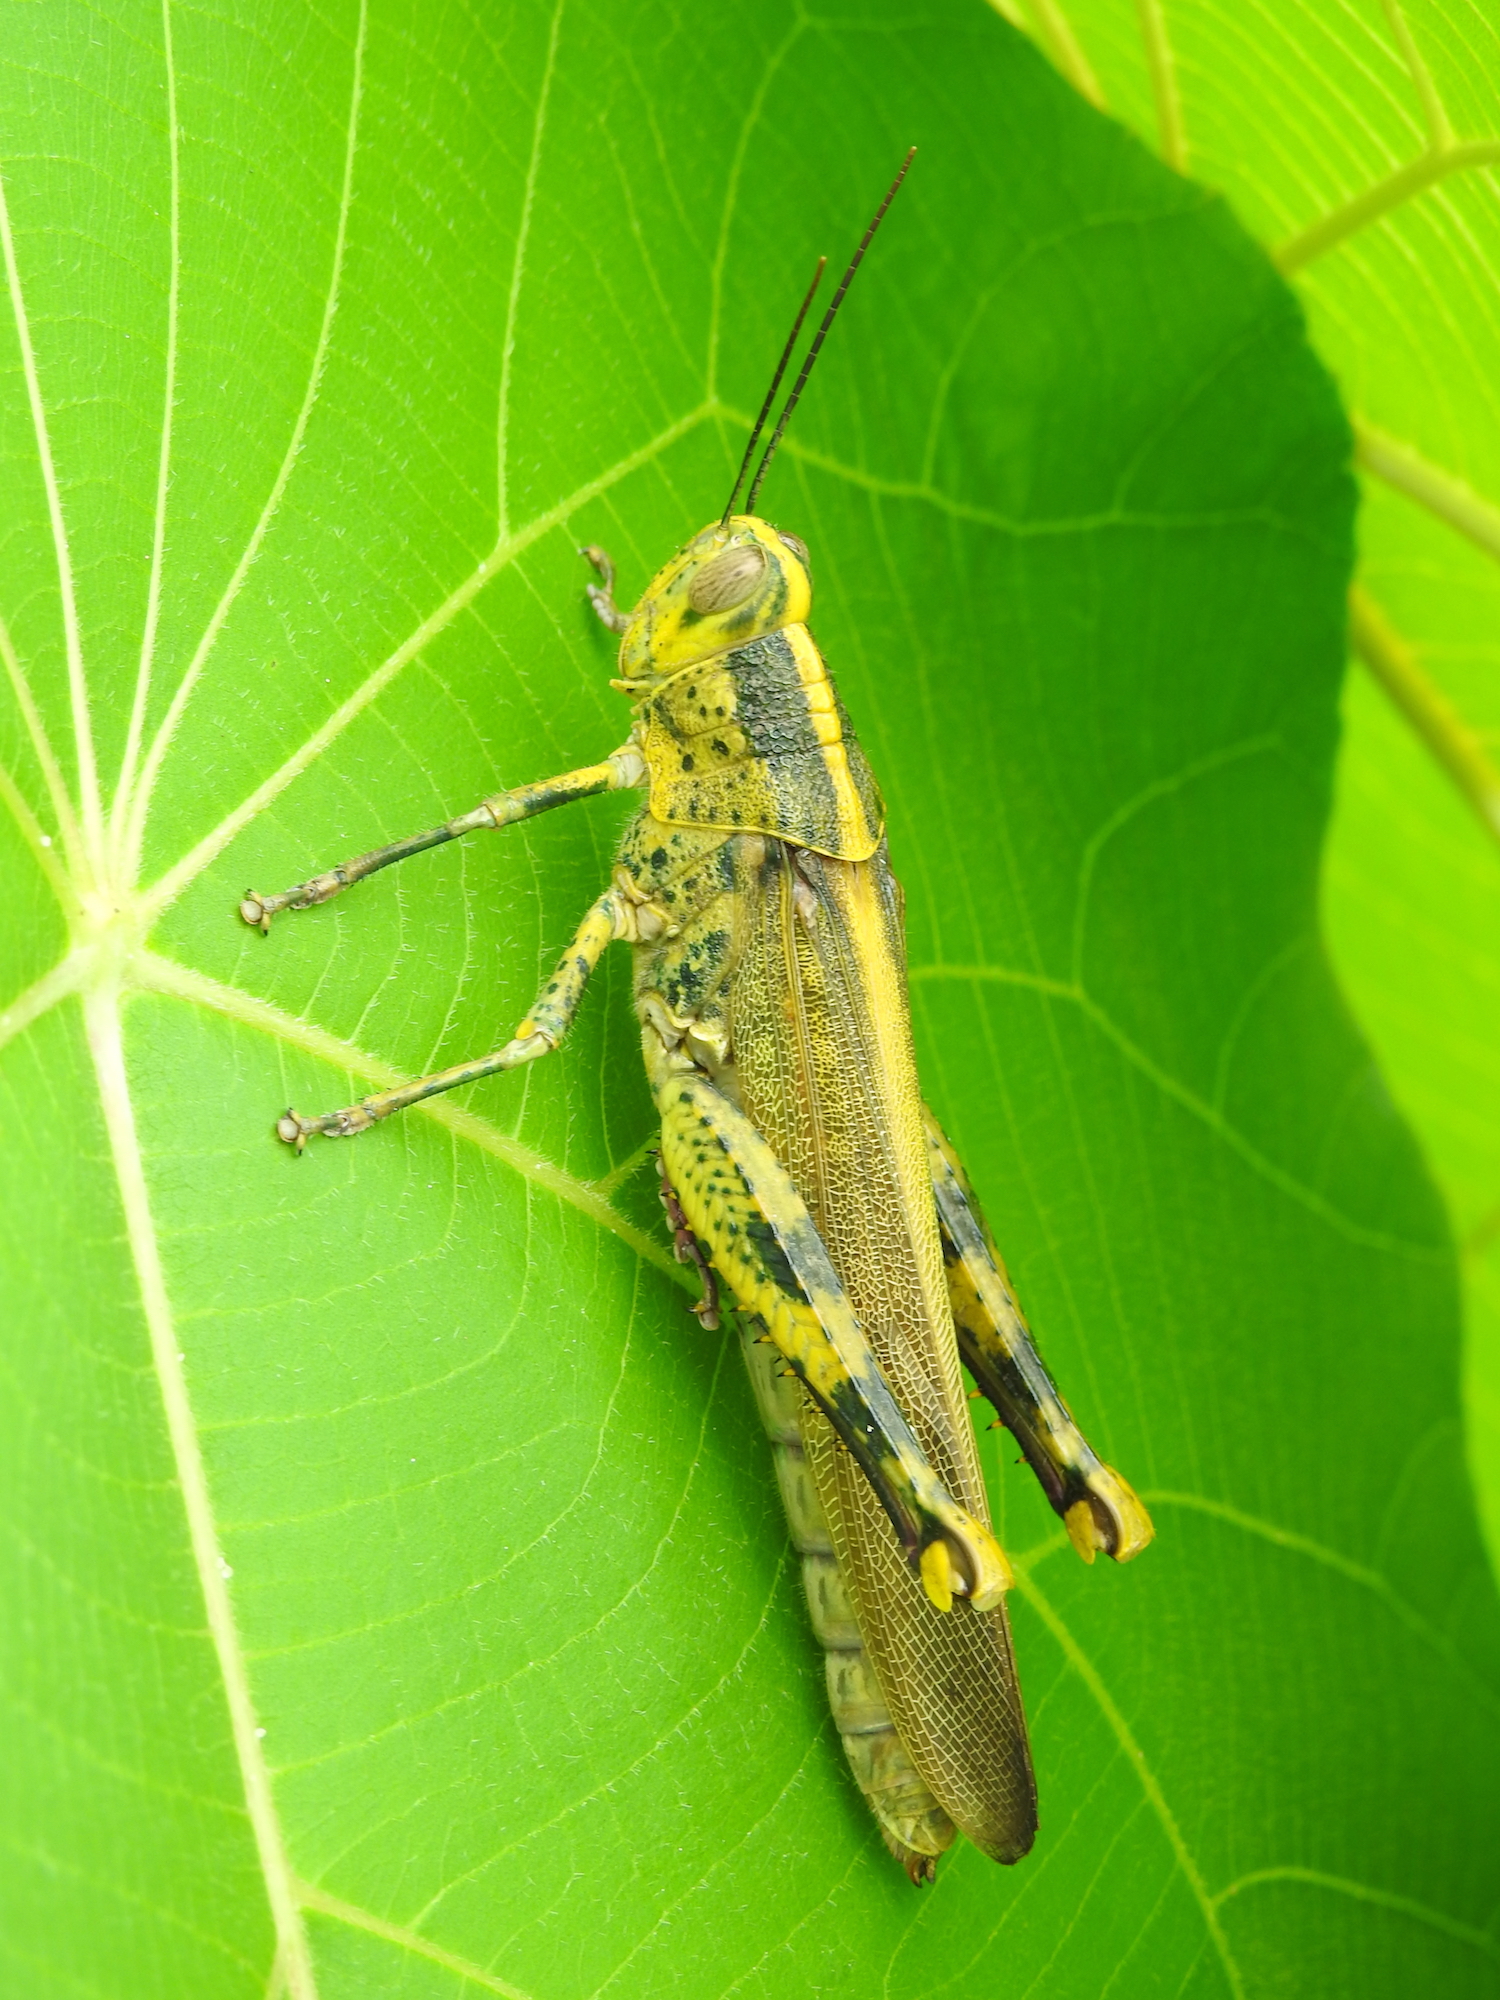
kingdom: Animalia
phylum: Arthropoda
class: Insecta
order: Orthoptera
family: Acrididae
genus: Valanga
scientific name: Valanga nigricornis
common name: Javanese bird grasshopper
